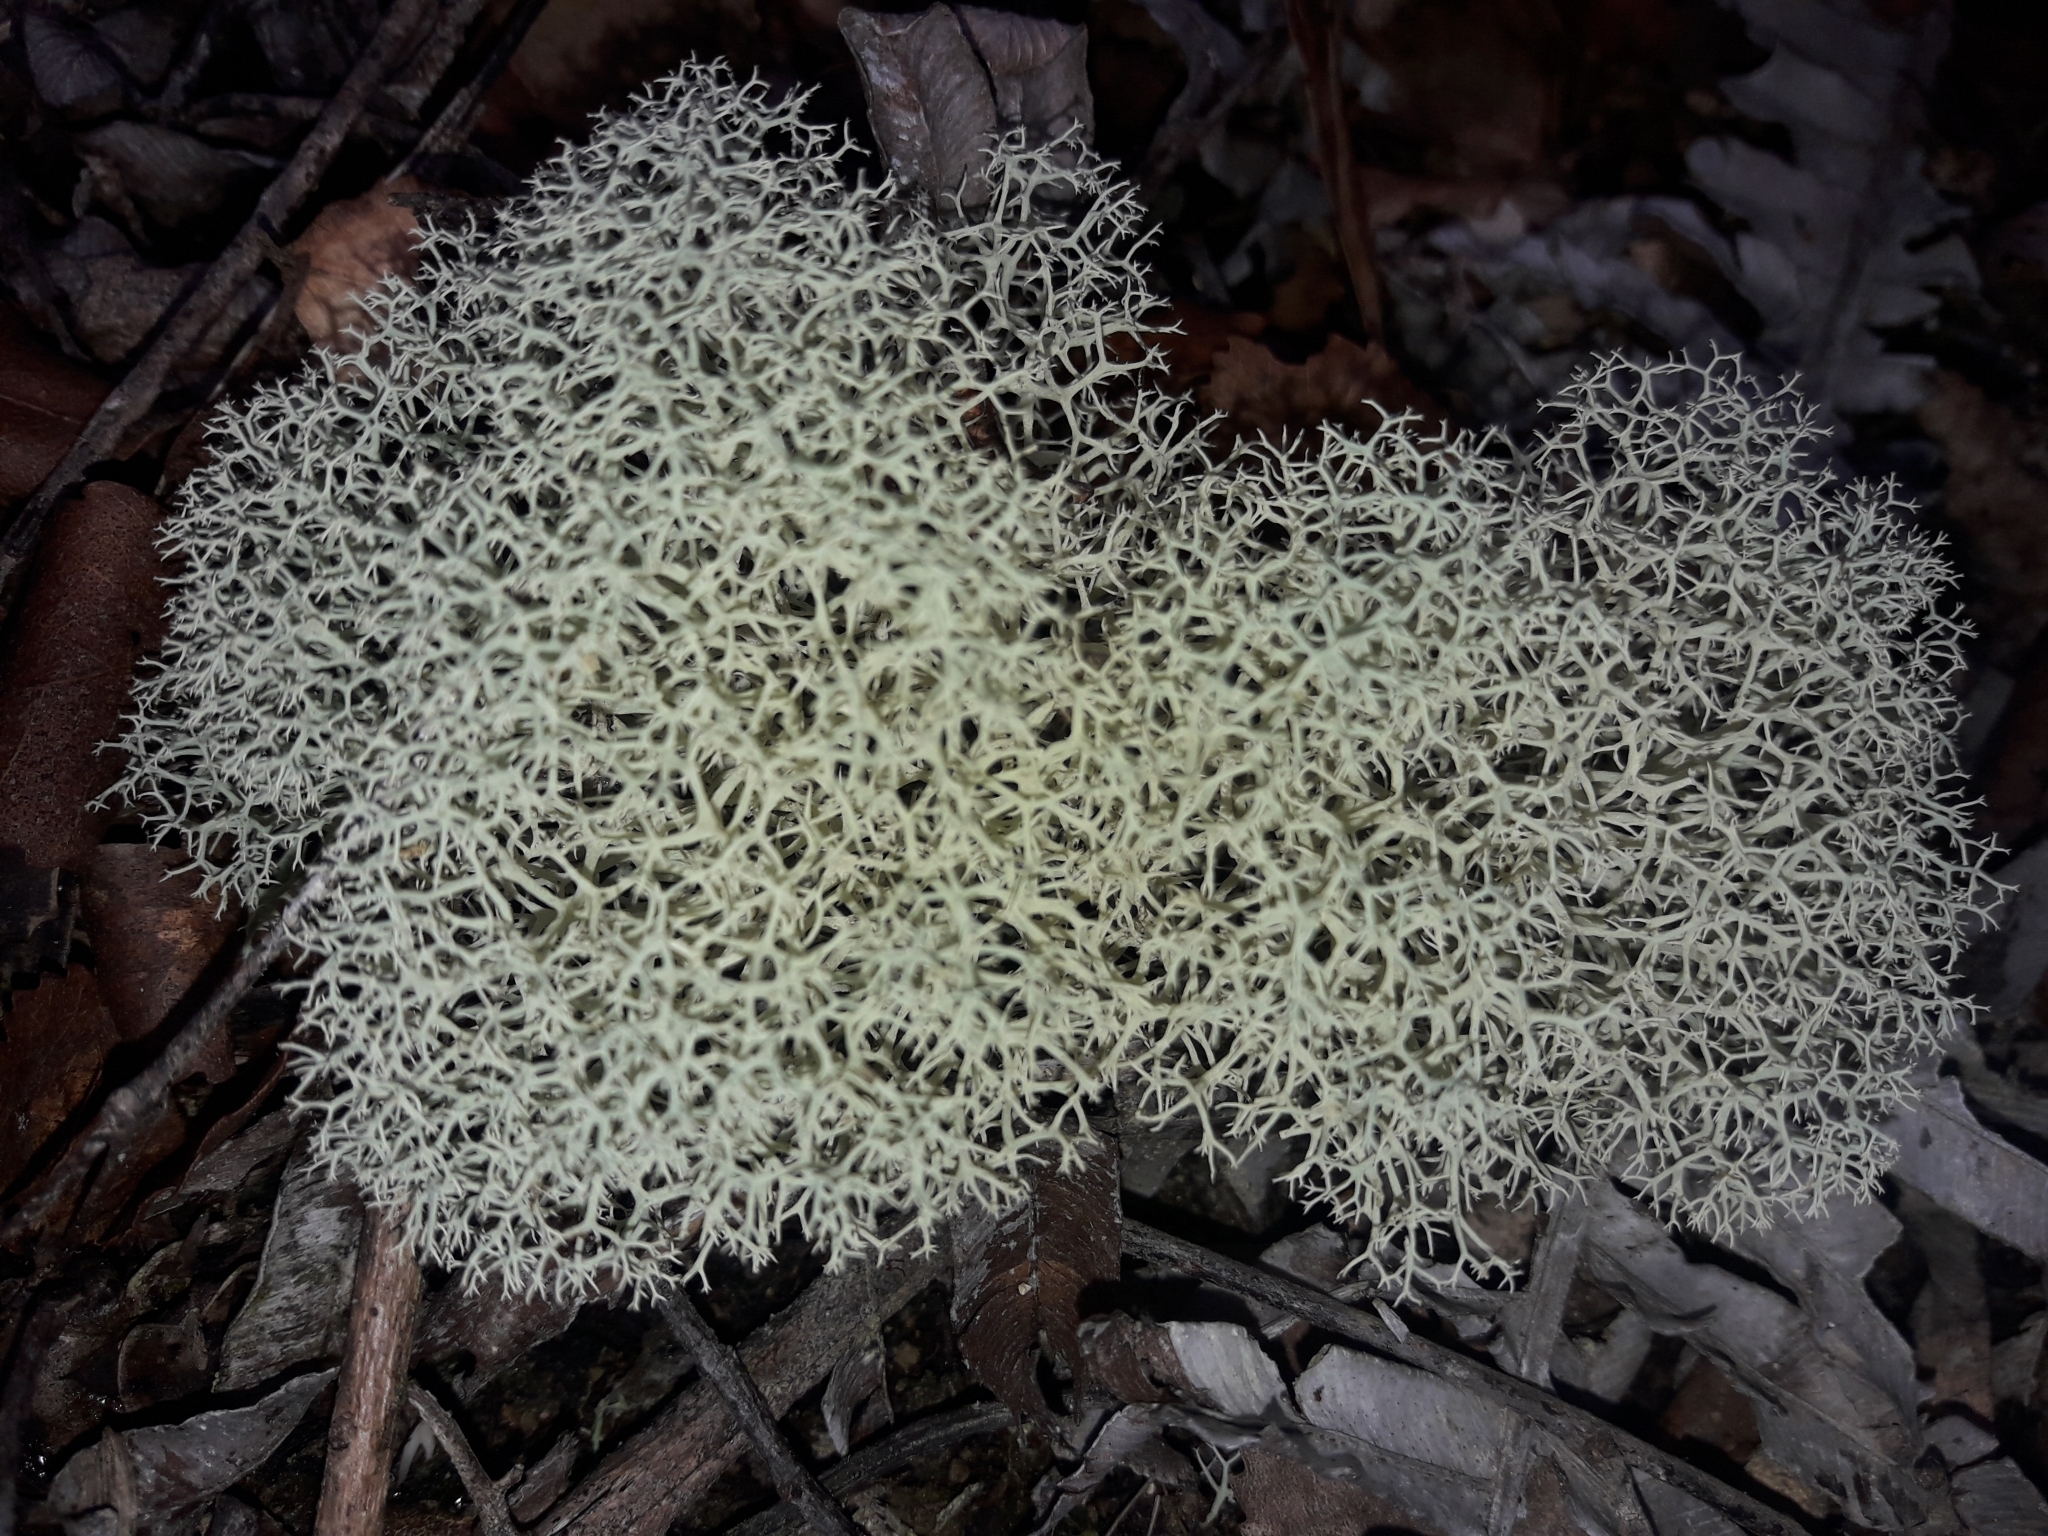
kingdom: Fungi
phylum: Ascomycota
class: Lecanoromycetes
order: Lecanorales
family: Cladoniaceae
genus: Cladonia
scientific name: Cladonia confusa
